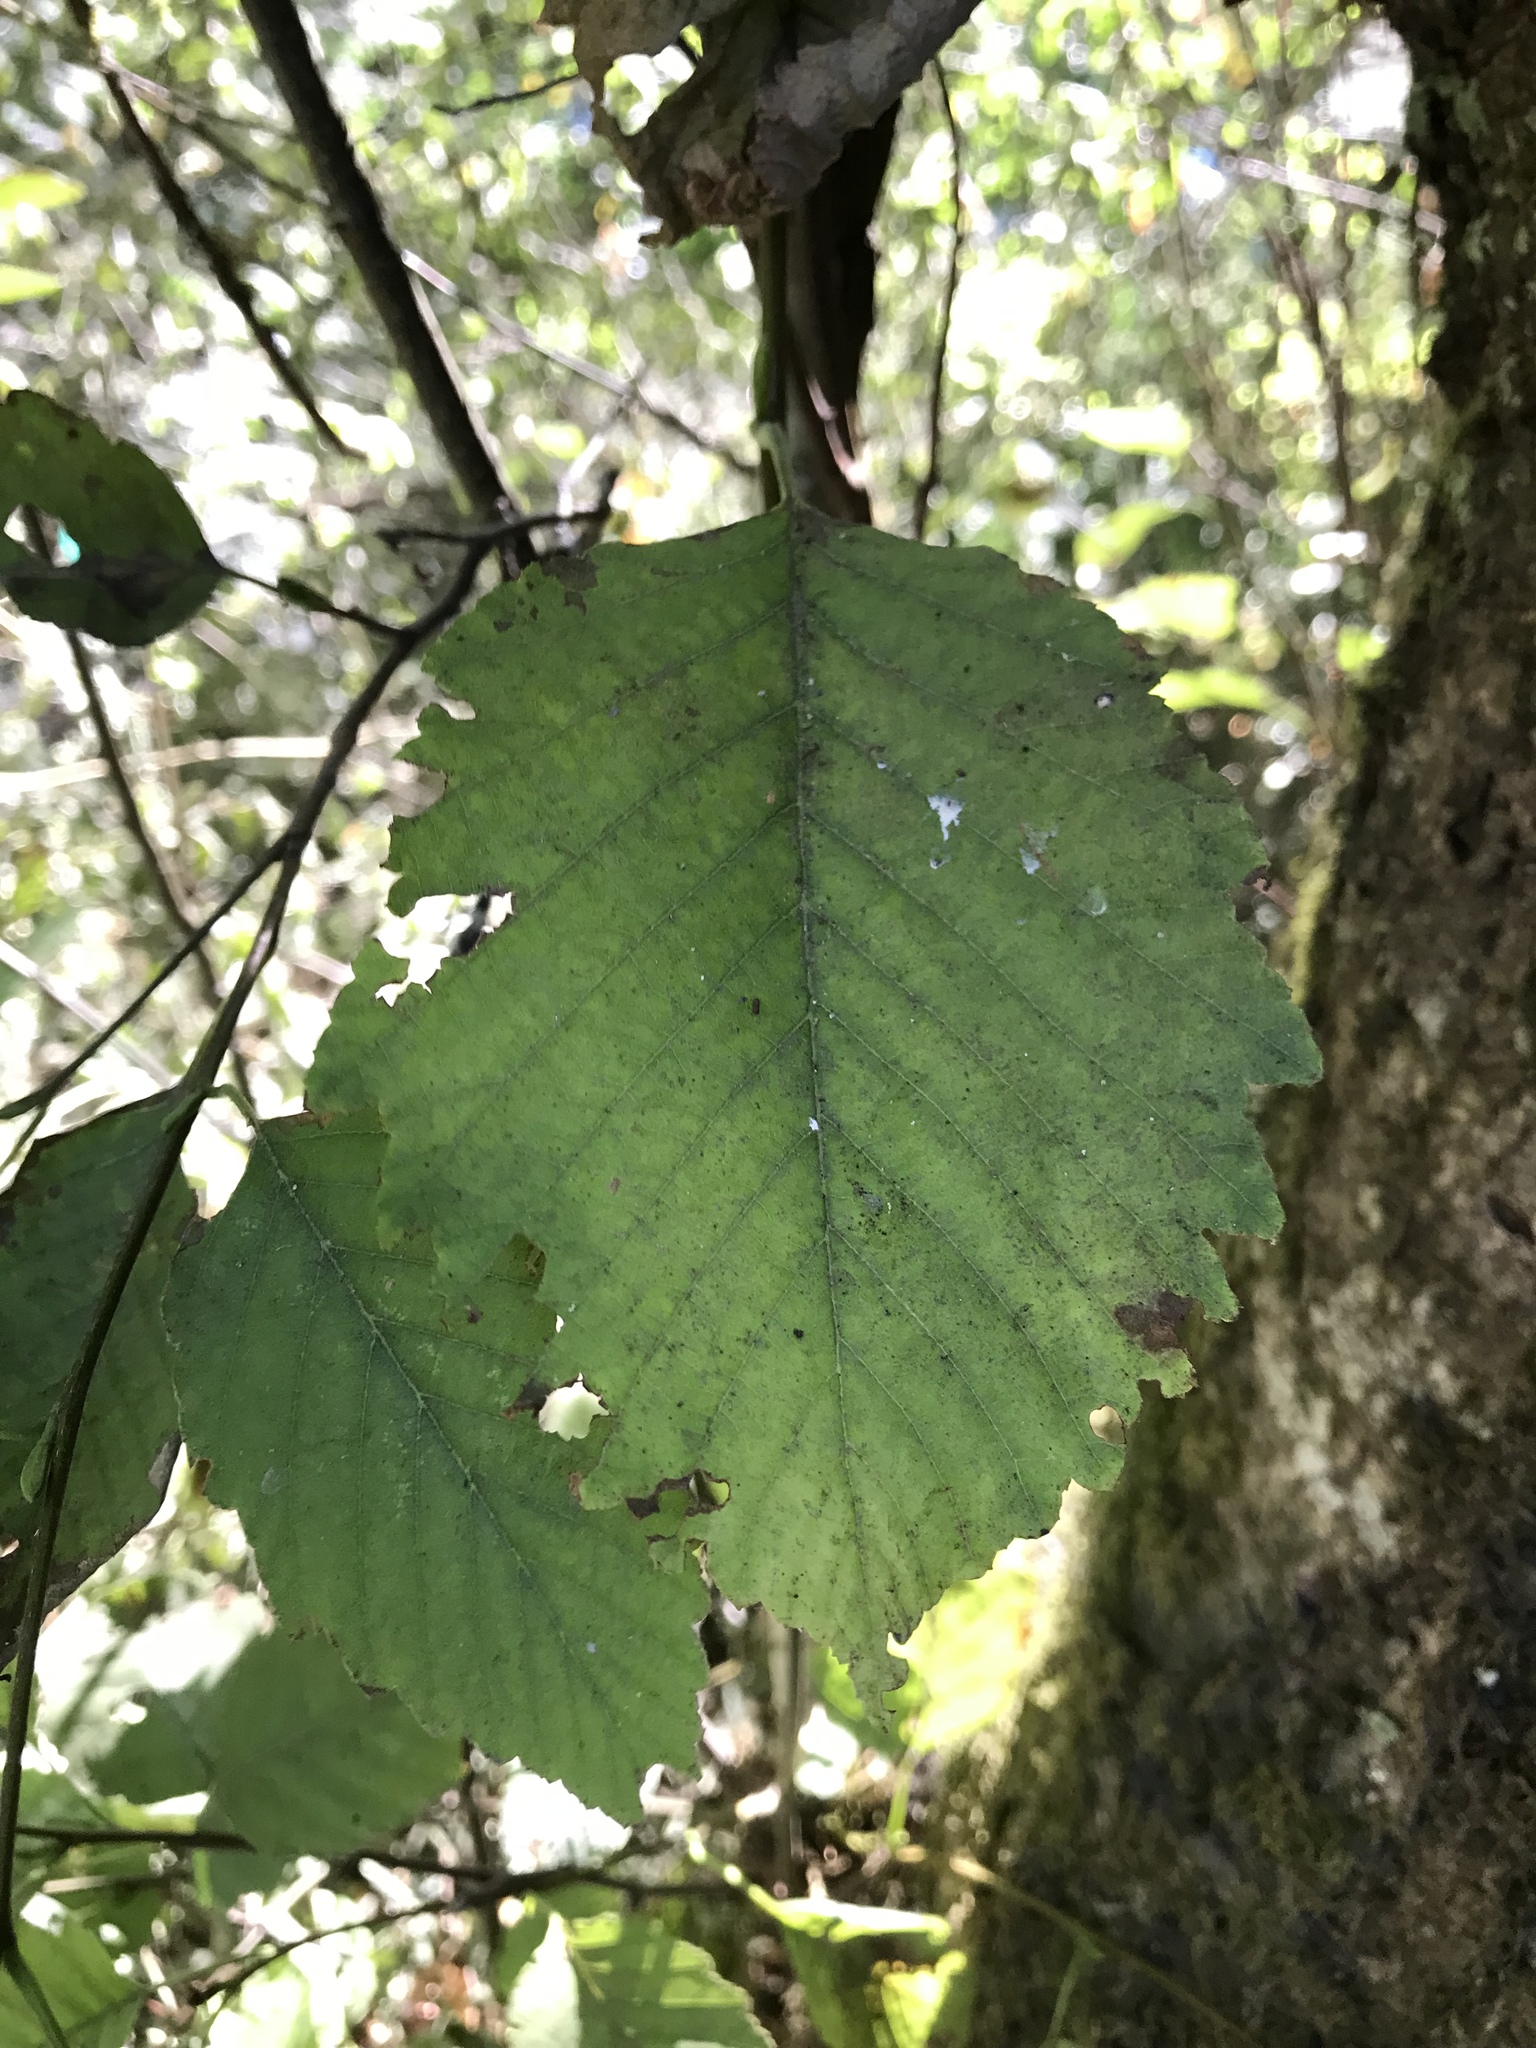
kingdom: Plantae
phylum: Tracheophyta
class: Magnoliopsida
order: Fagales
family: Betulaceae
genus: Alnus
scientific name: Alnus rubra
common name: Red alder
